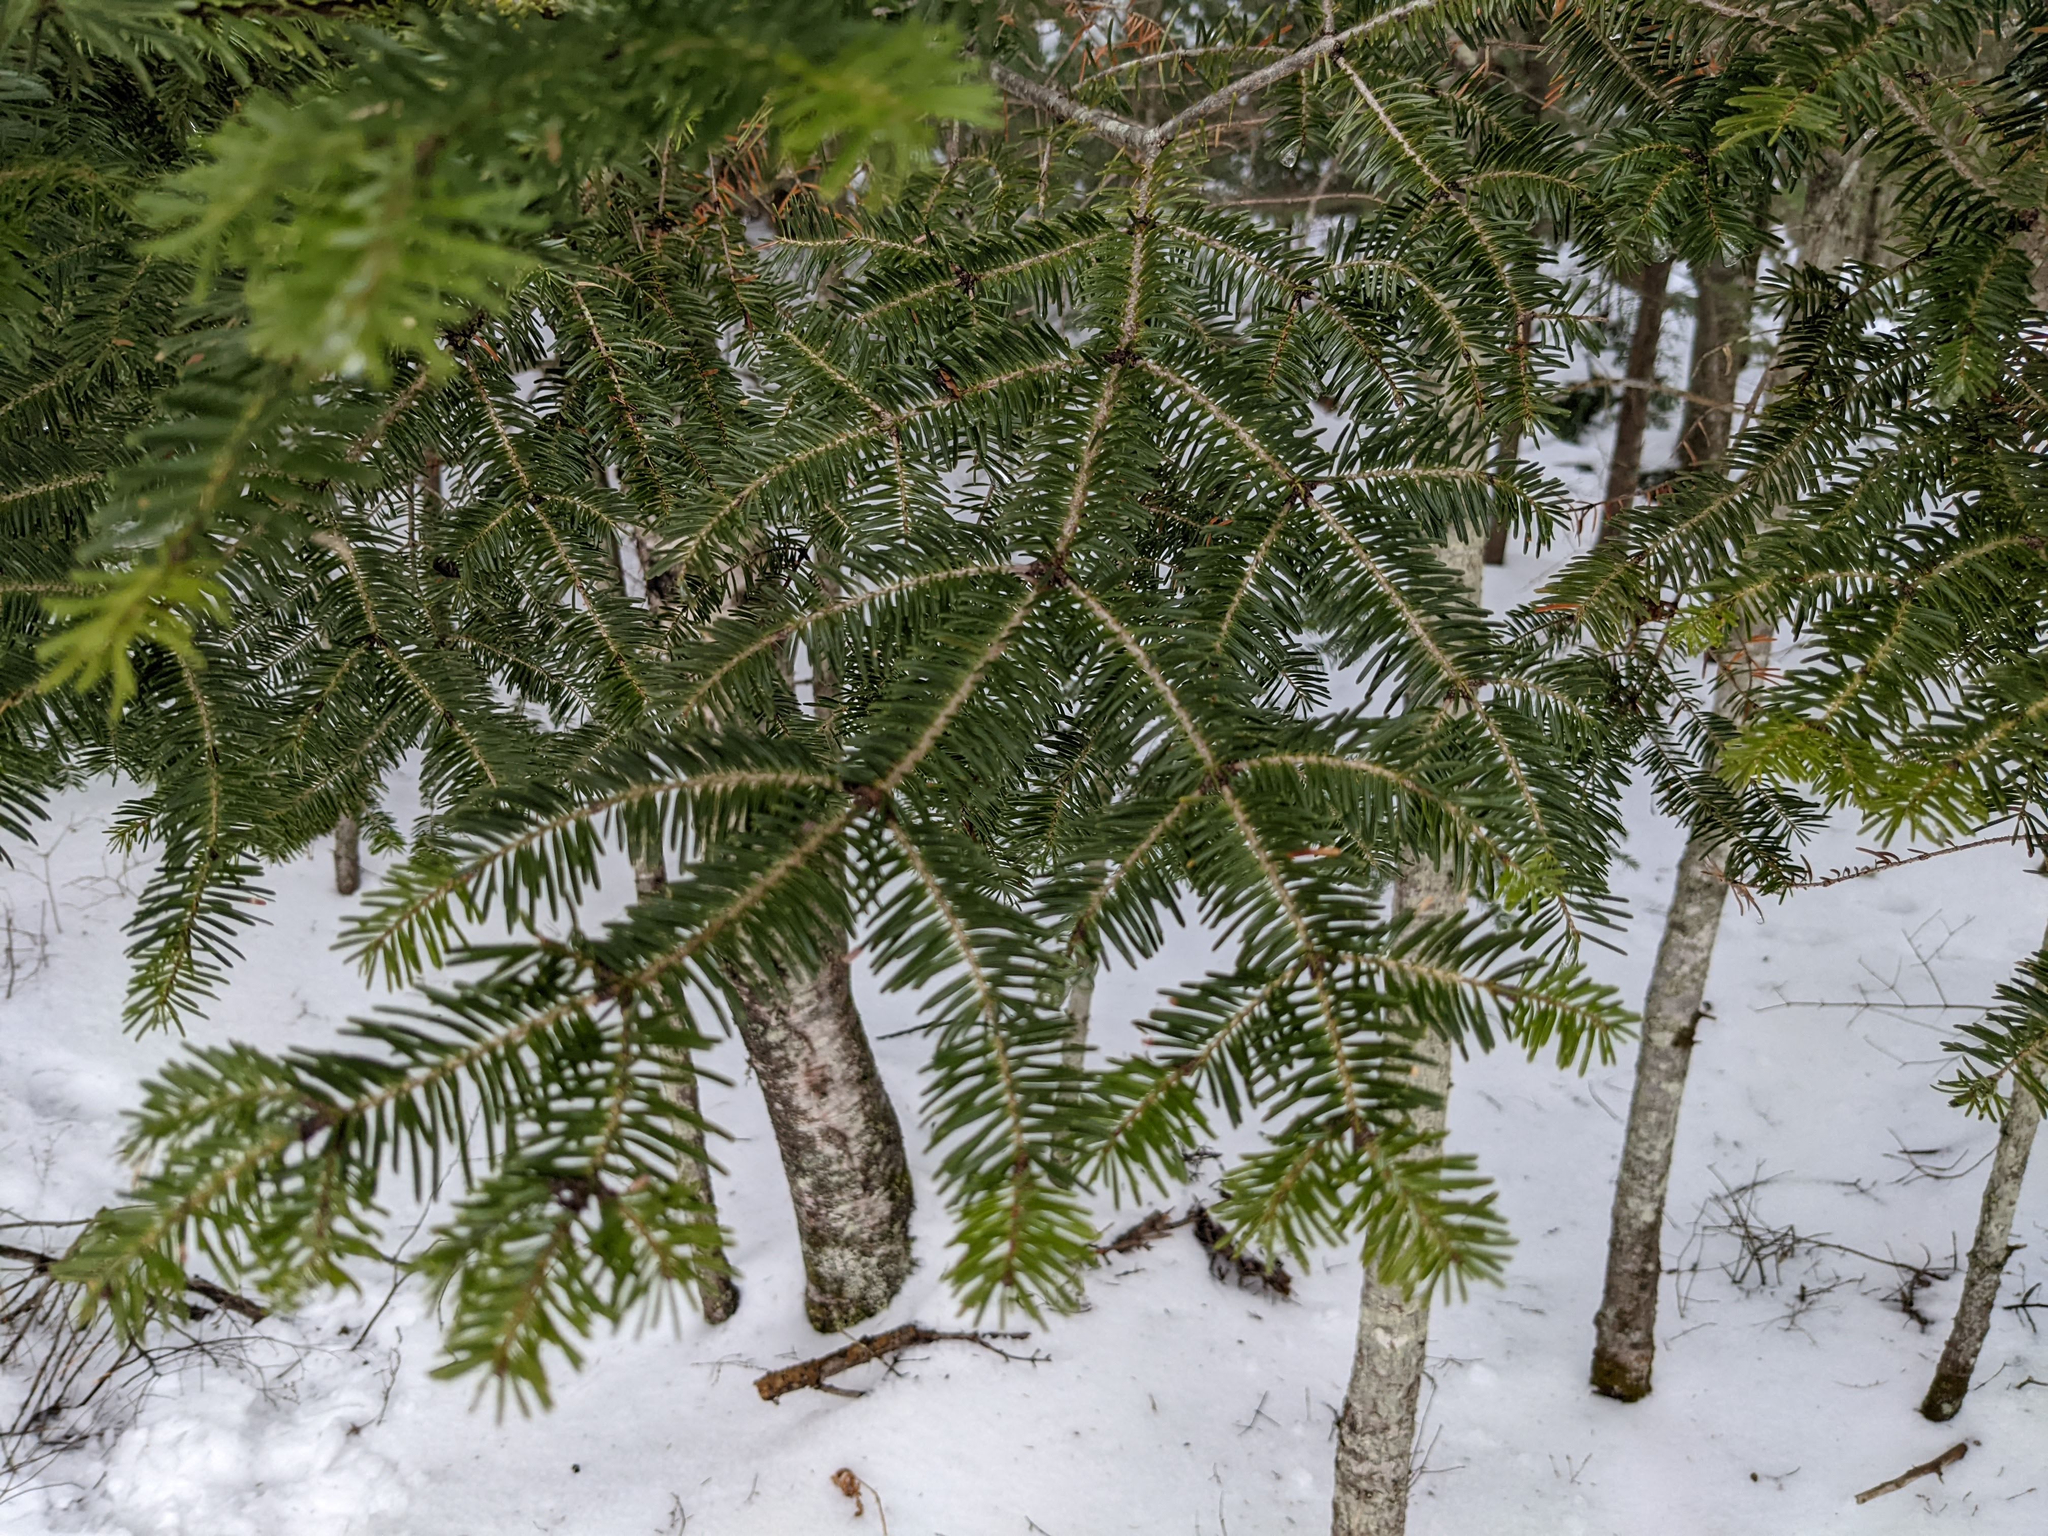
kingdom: Plantae
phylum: Tracheophyta
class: Pinopsida
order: Pinales
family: Pinaceae
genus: Abies
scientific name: Abies balsamea
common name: Balsam fir
